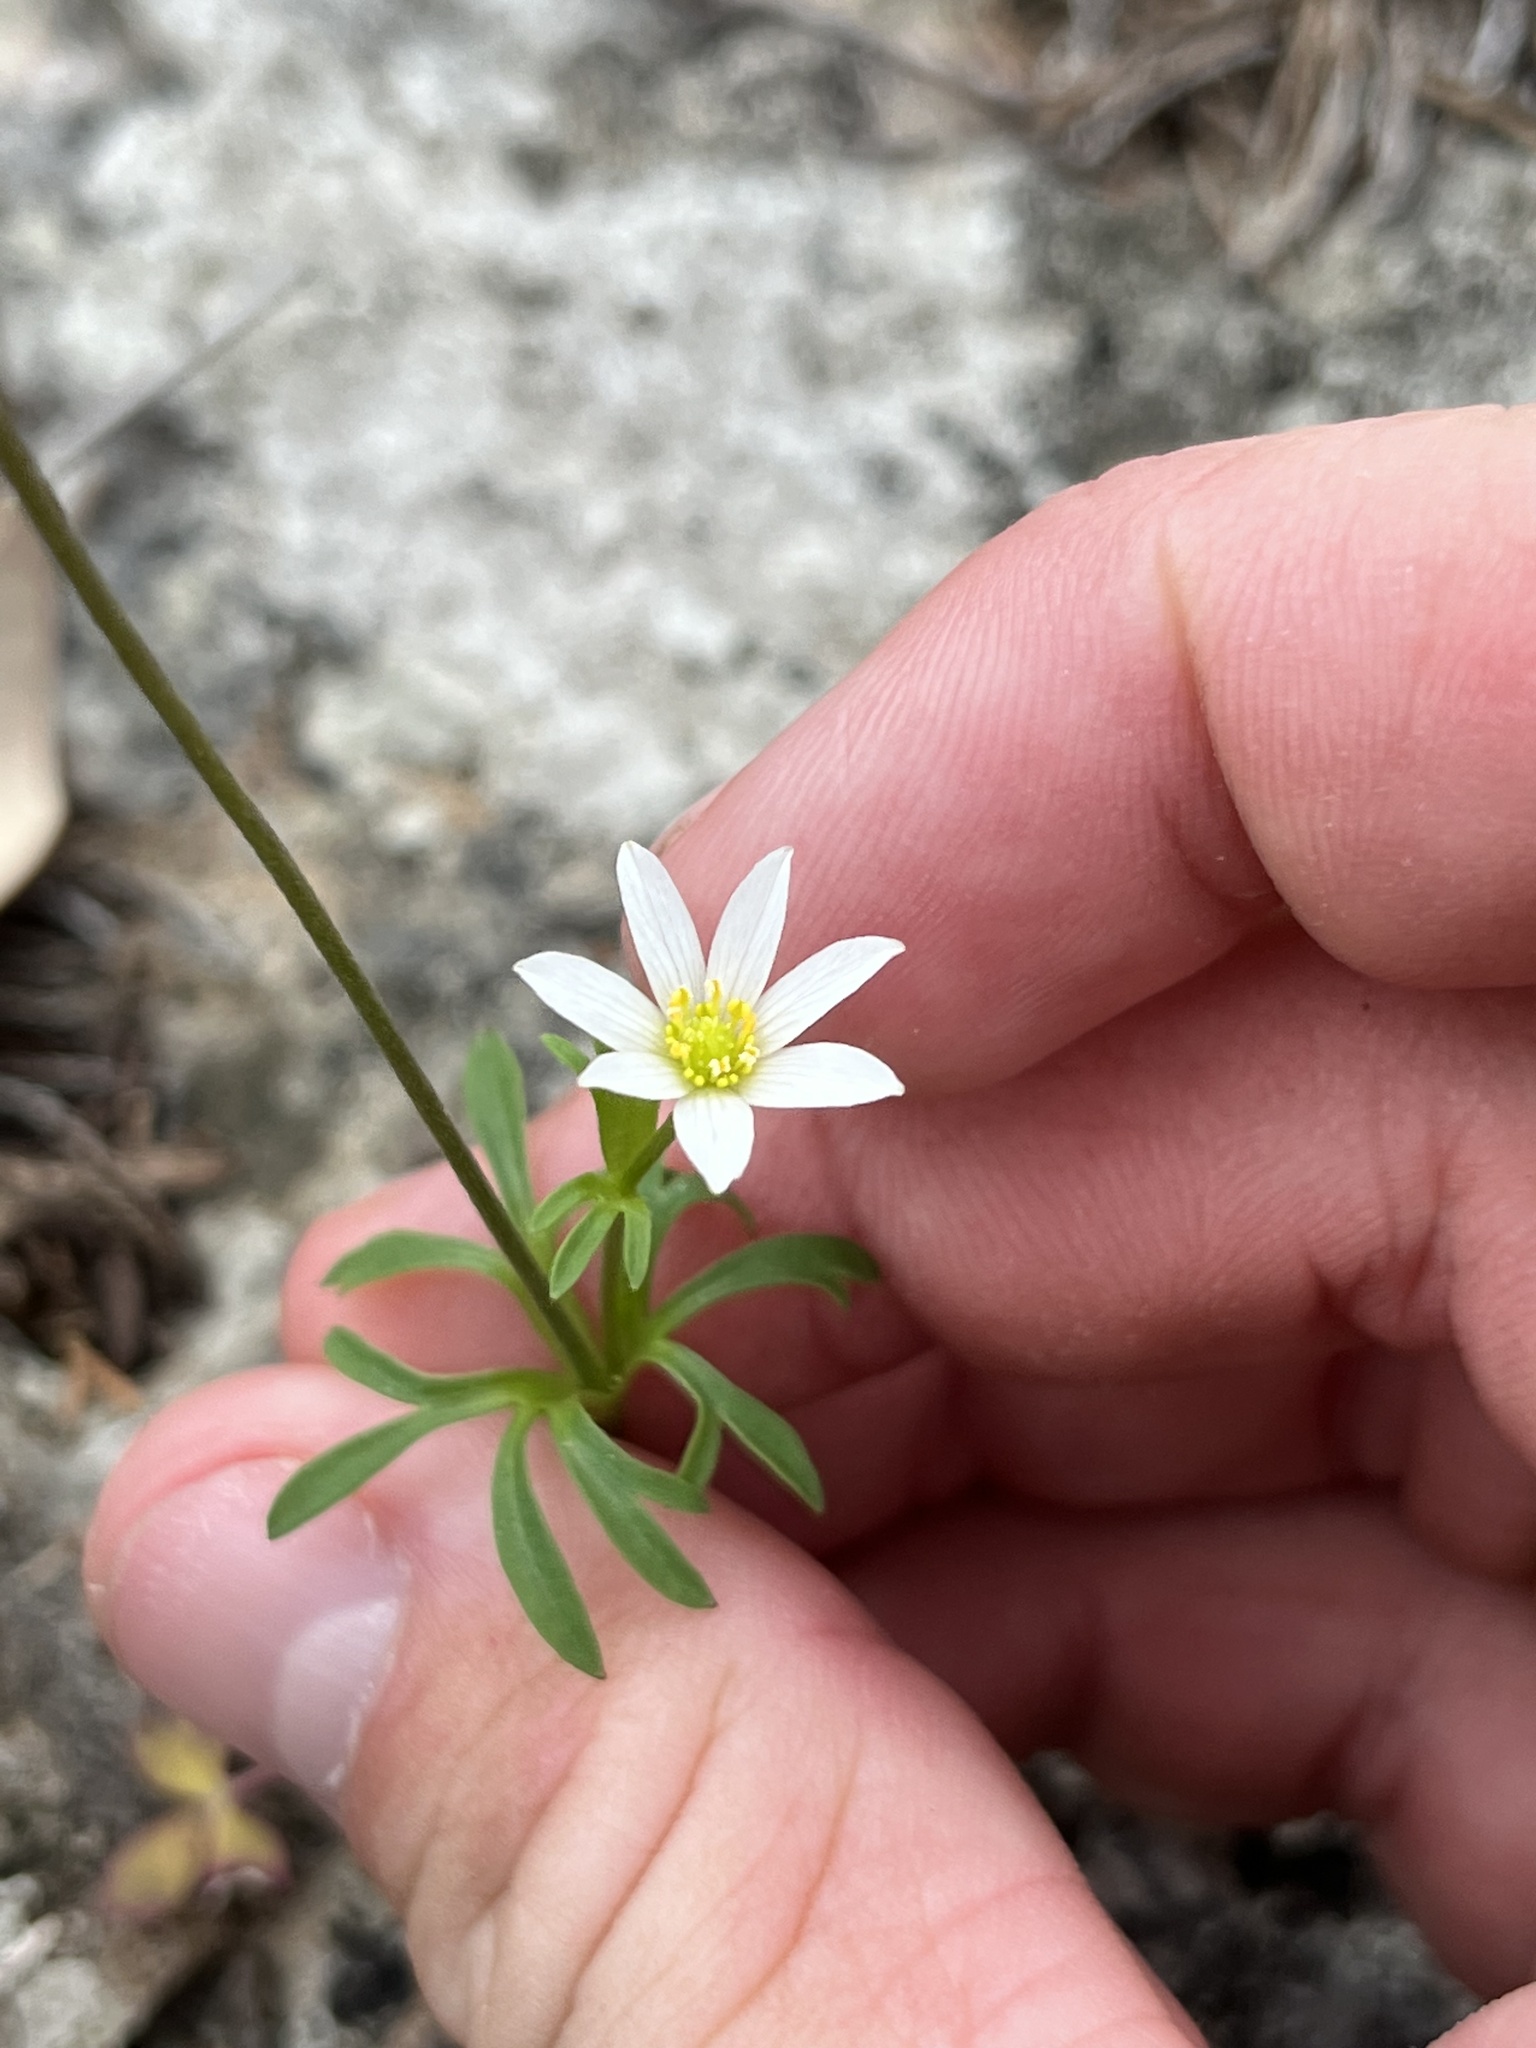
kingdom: Plantae
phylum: Tracheophyta
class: Magnoliopsida
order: Ranunculales
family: Ranunculaceae
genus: Anemone
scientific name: Anemone edwardsiana
